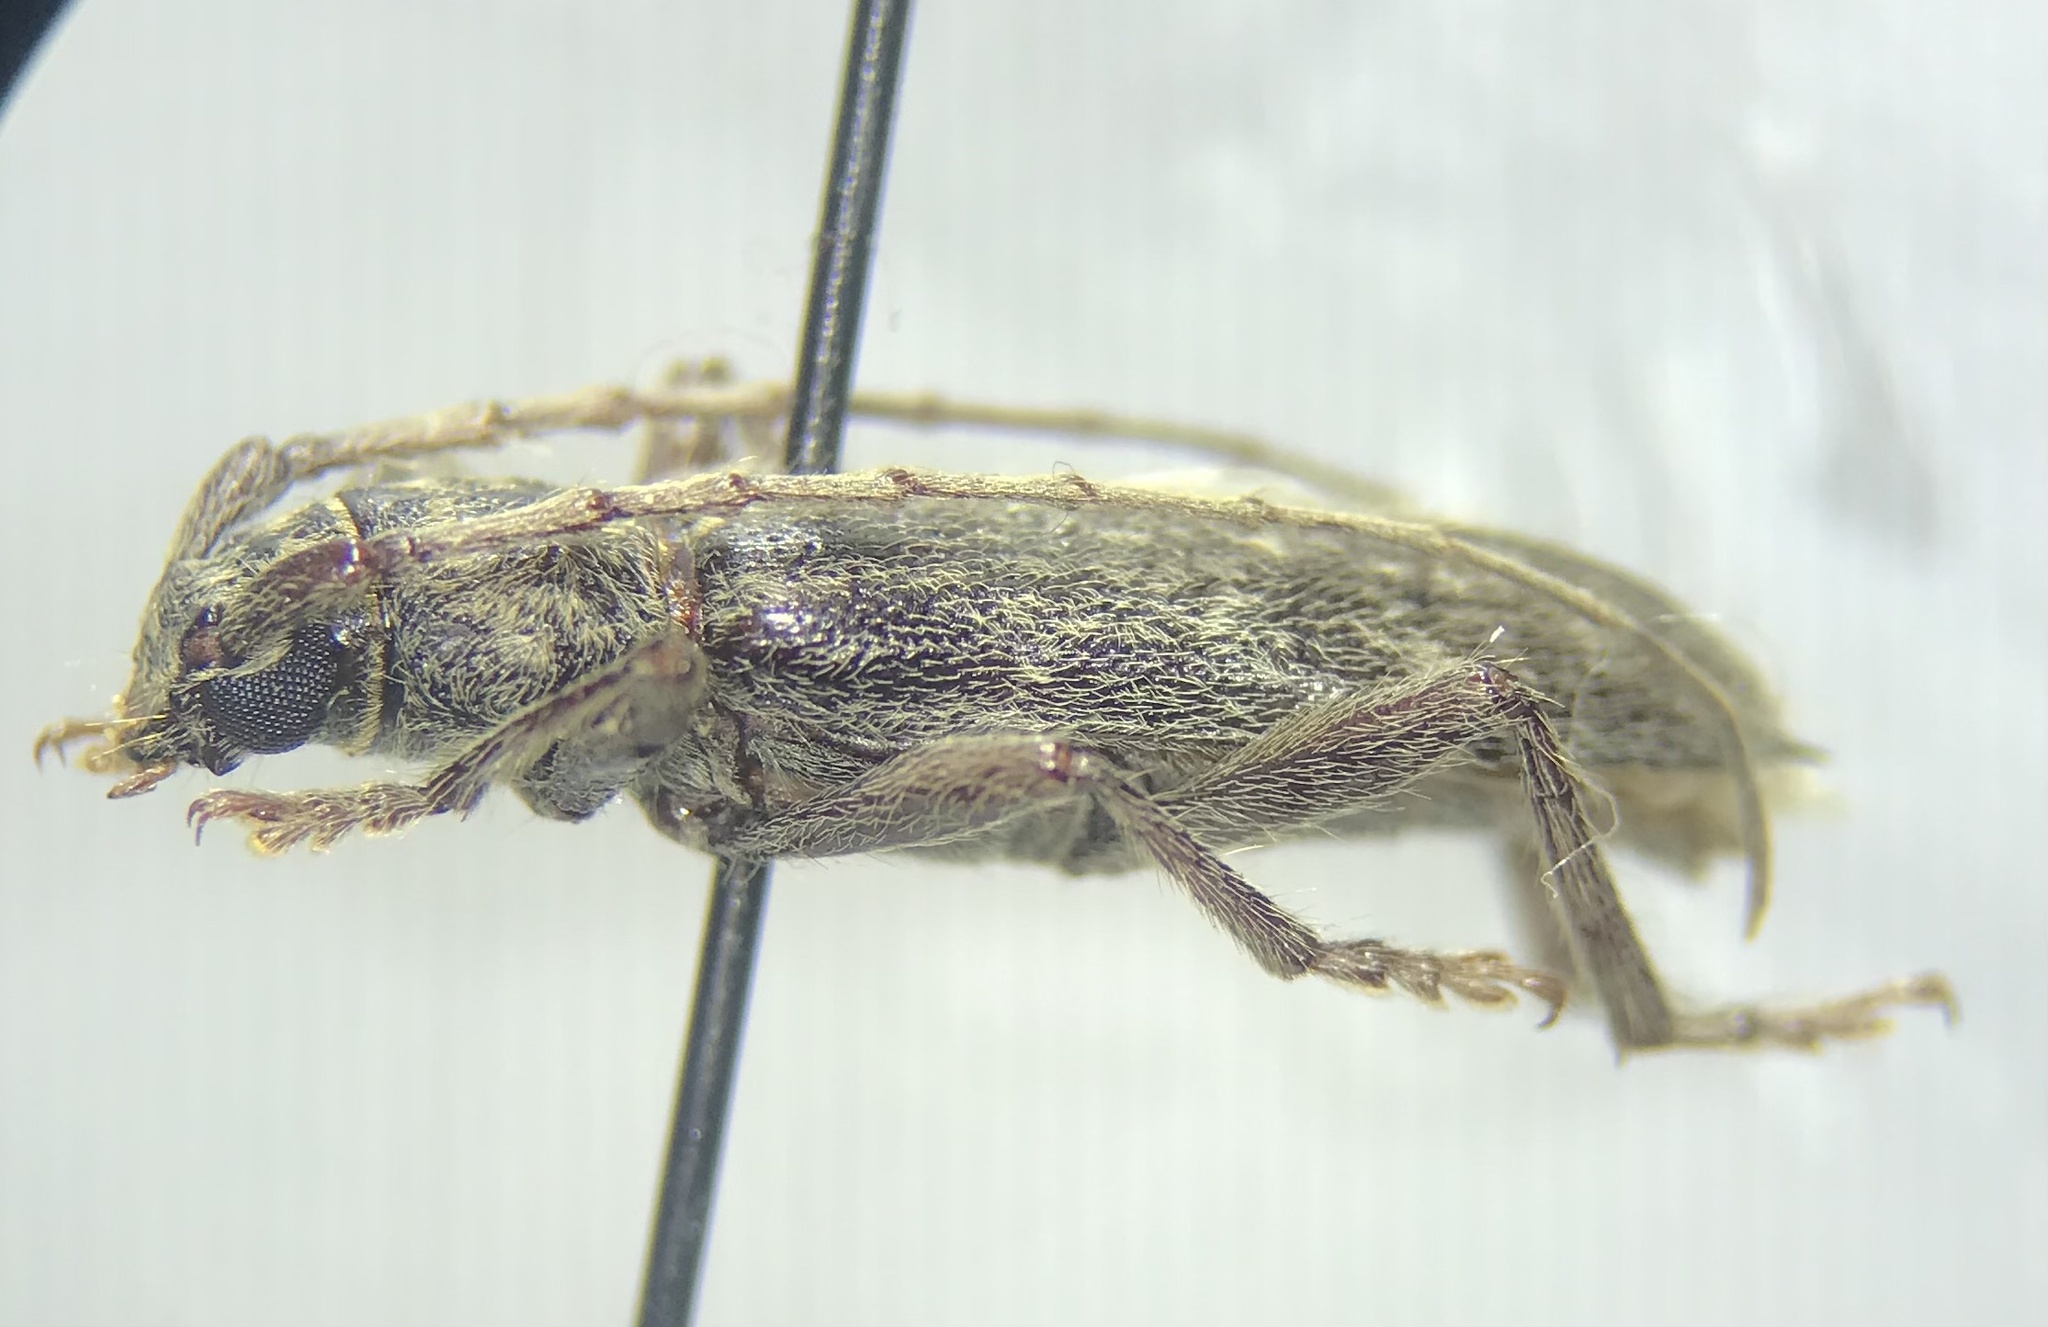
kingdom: Animalia
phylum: Arthropoda
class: Insecta
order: Coleoptera
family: Cerambycidae
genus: Anelaphus
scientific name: Anelaphus villosus
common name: Twig pruner
